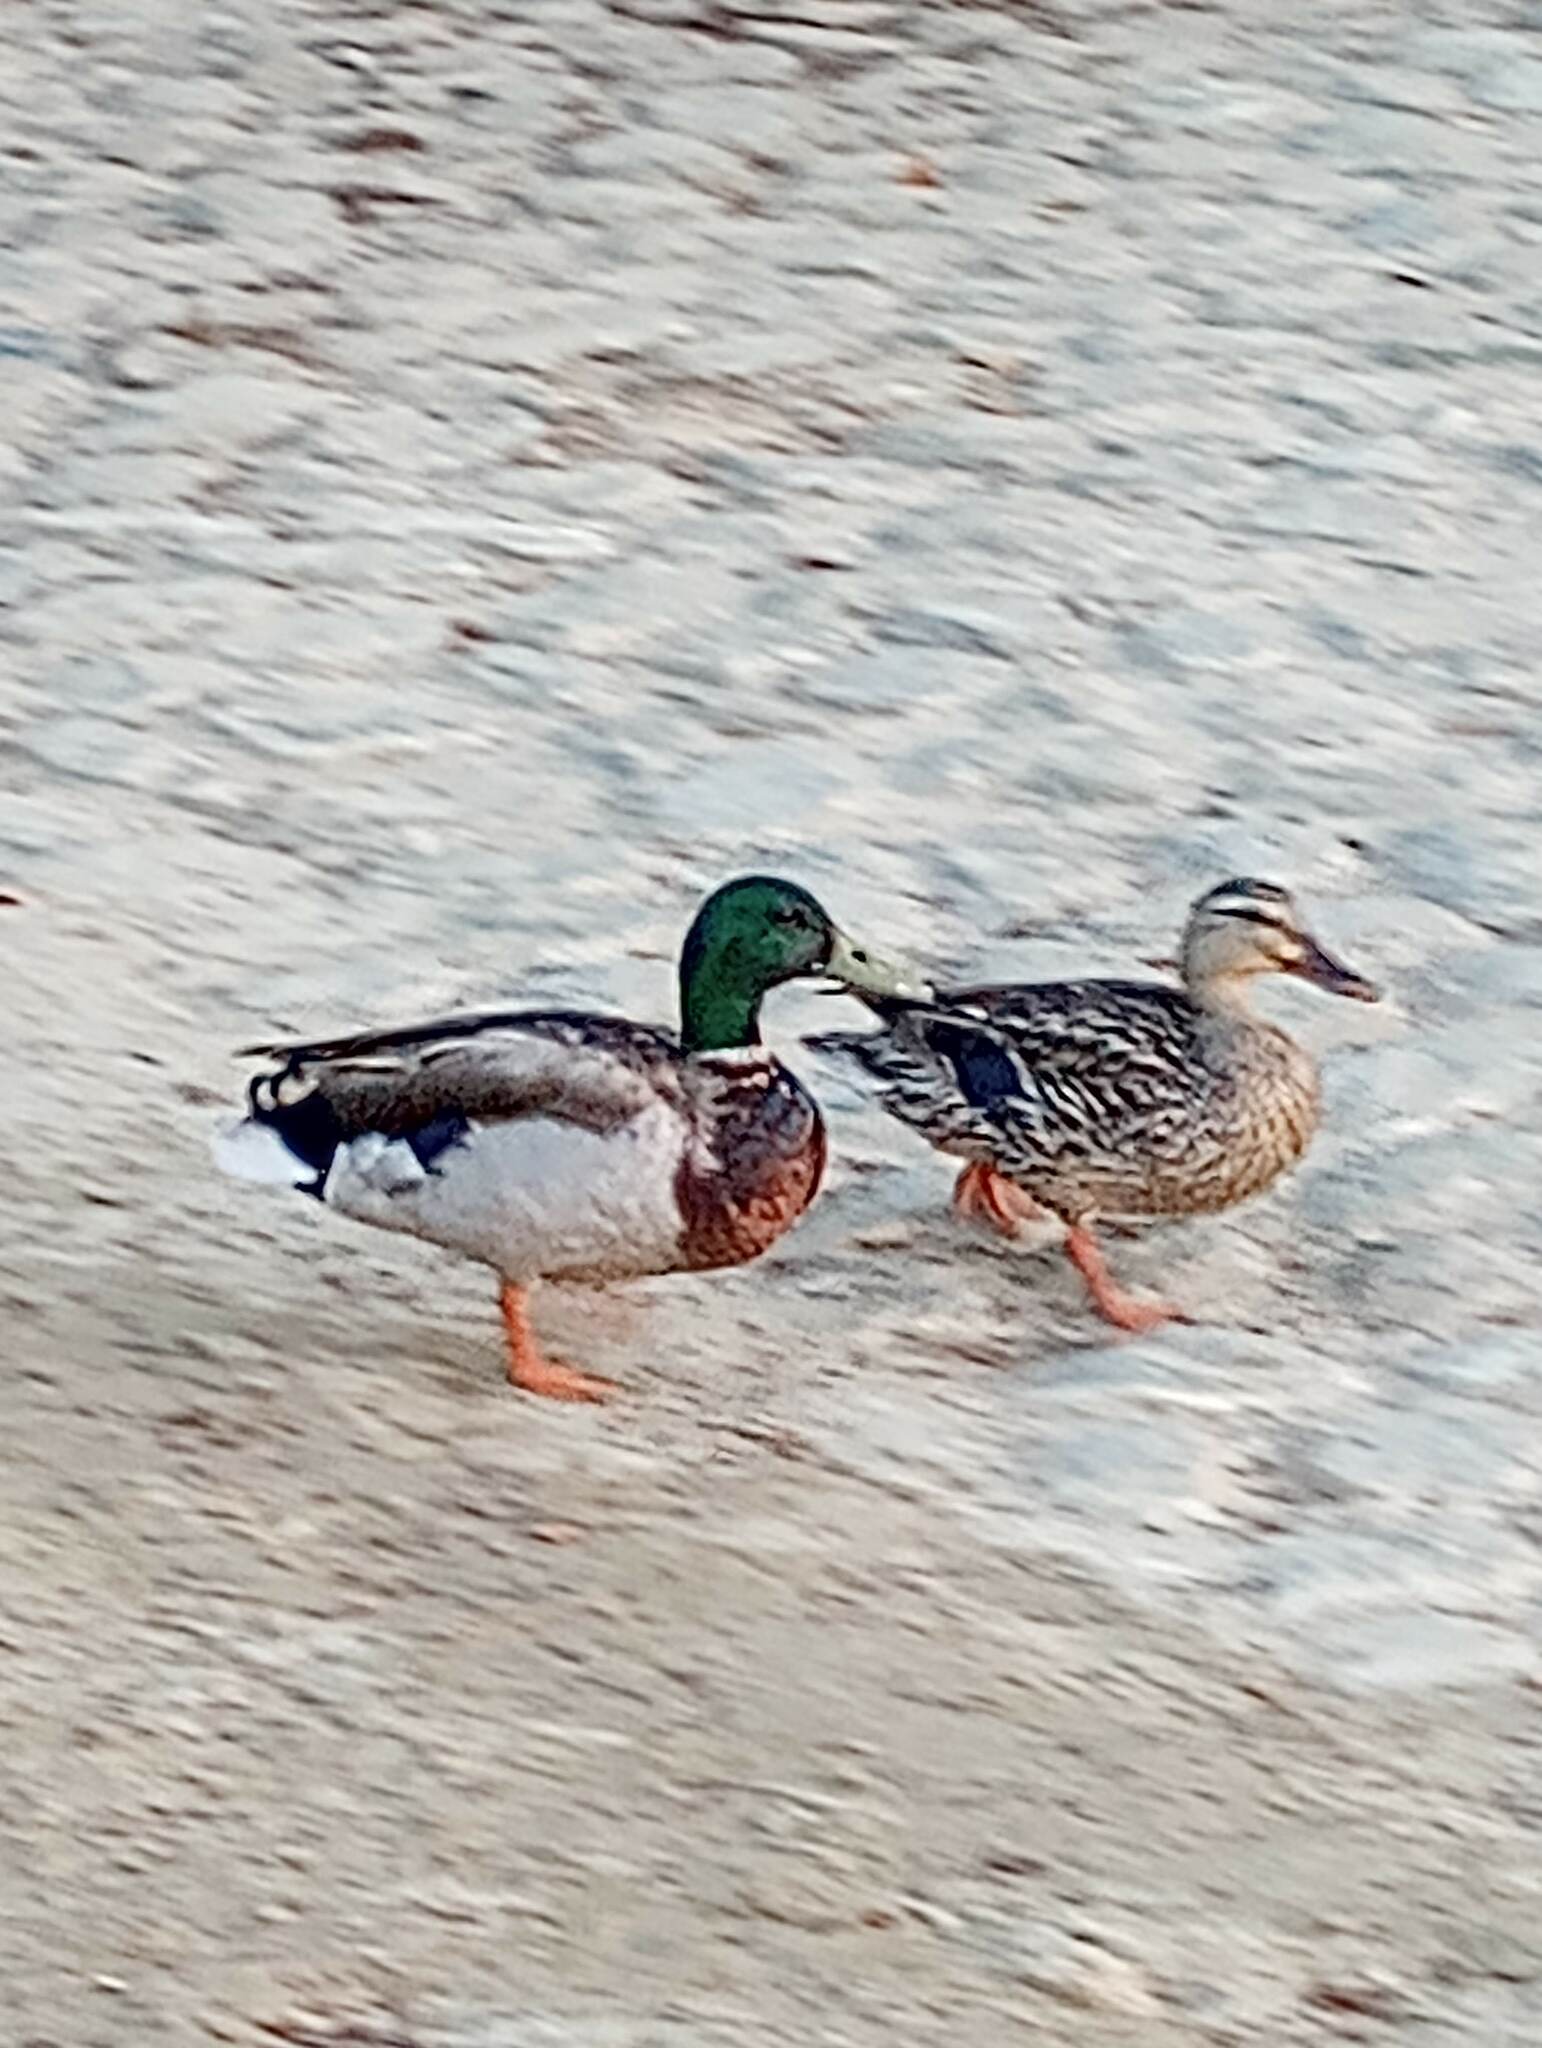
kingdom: Animalia
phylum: Chordata
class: Aves
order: Anseriformes
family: Anatidae
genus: Anas
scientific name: Anas platyrhynchos
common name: Mallard
